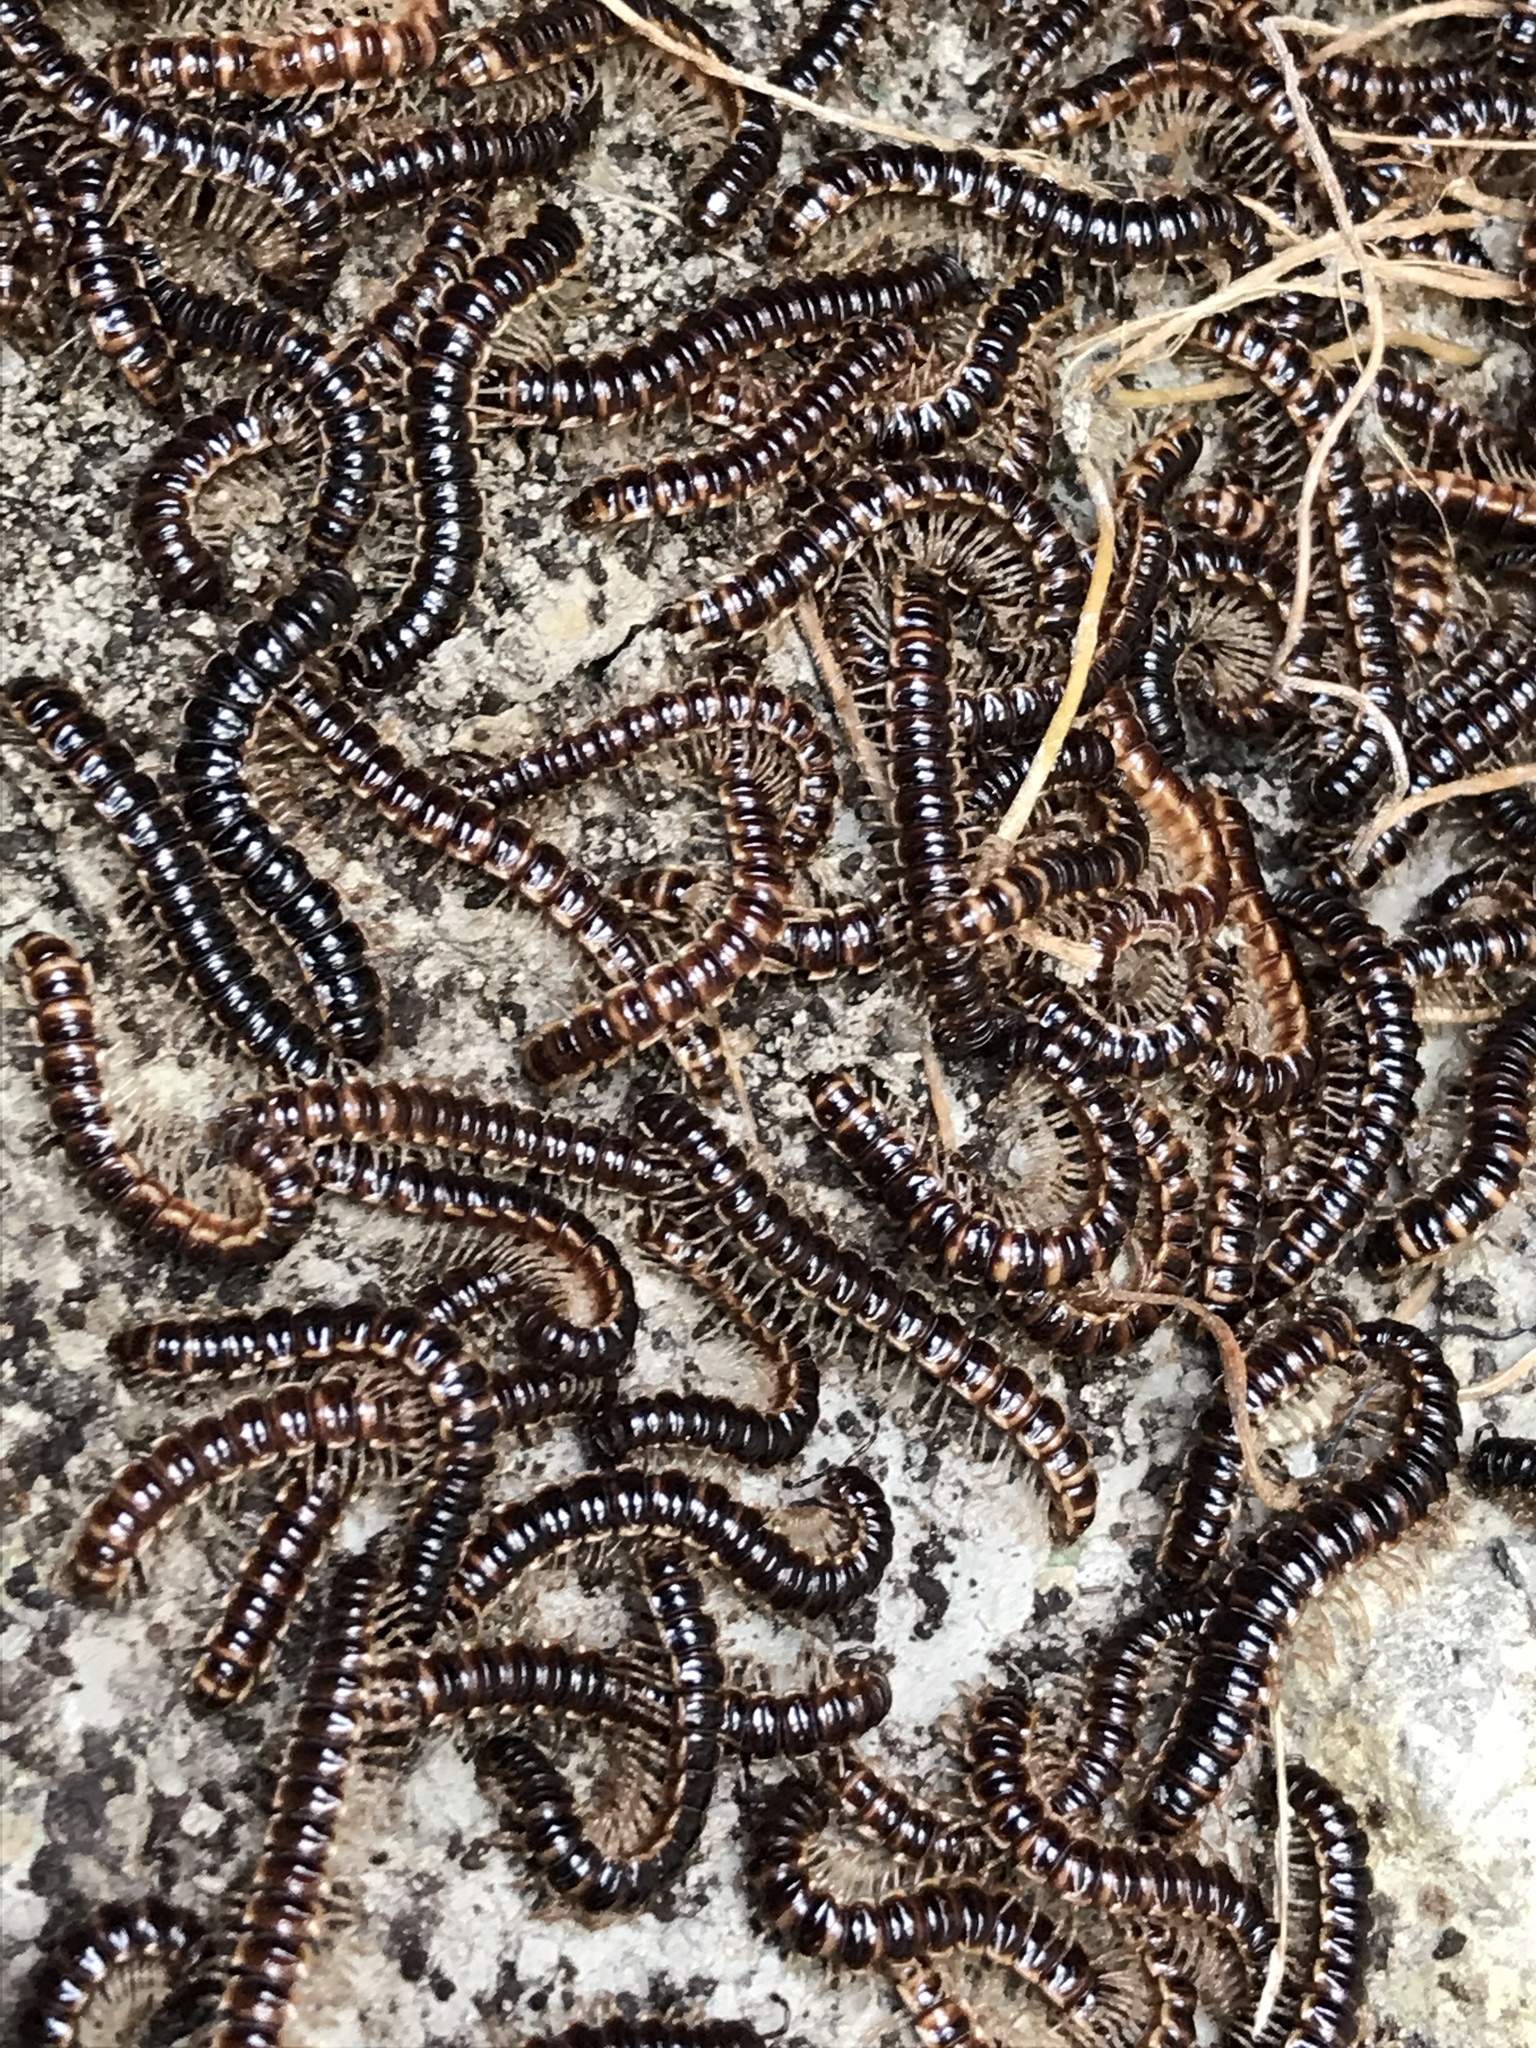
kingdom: Animalia
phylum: Arthropoda
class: Diplopoda
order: Polydesmida
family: Paradoxosomatidae
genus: Oxidus
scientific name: Oxidus gracilis
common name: Greenhouse millipede
